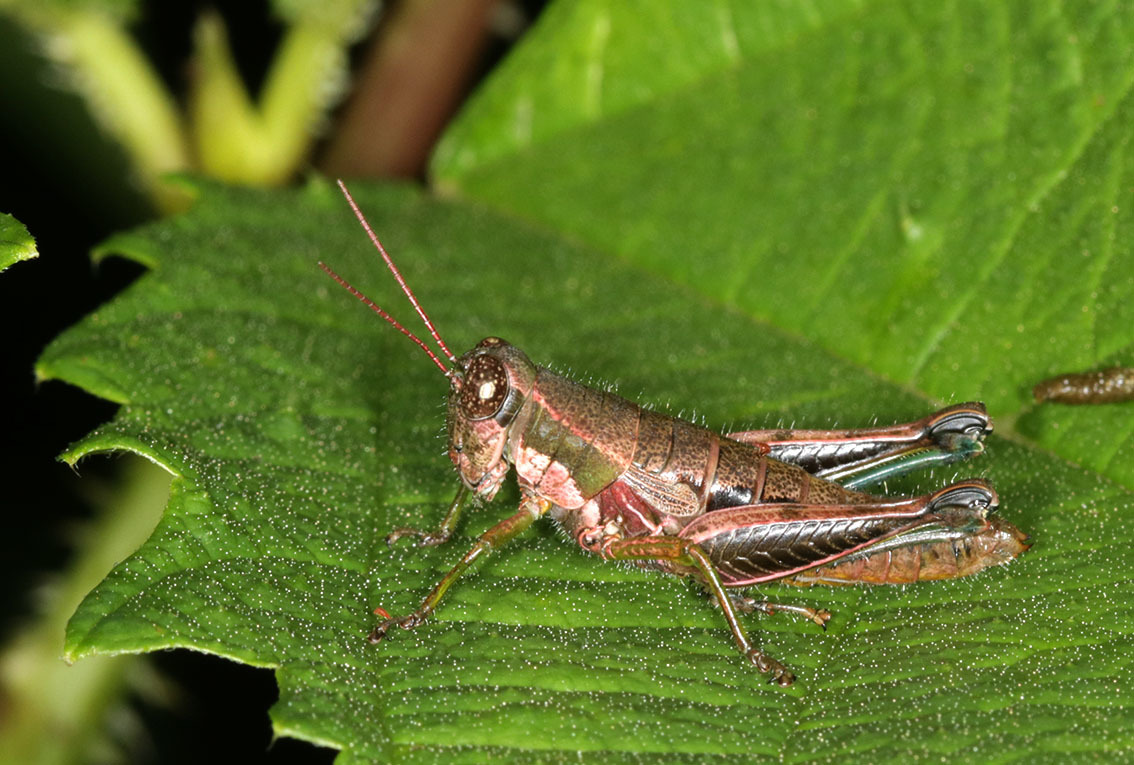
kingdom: Animalia
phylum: Arthropoda
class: Insecta
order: Orthoptera
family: Acrididae
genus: Propedies
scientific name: Propedies fusiformis
